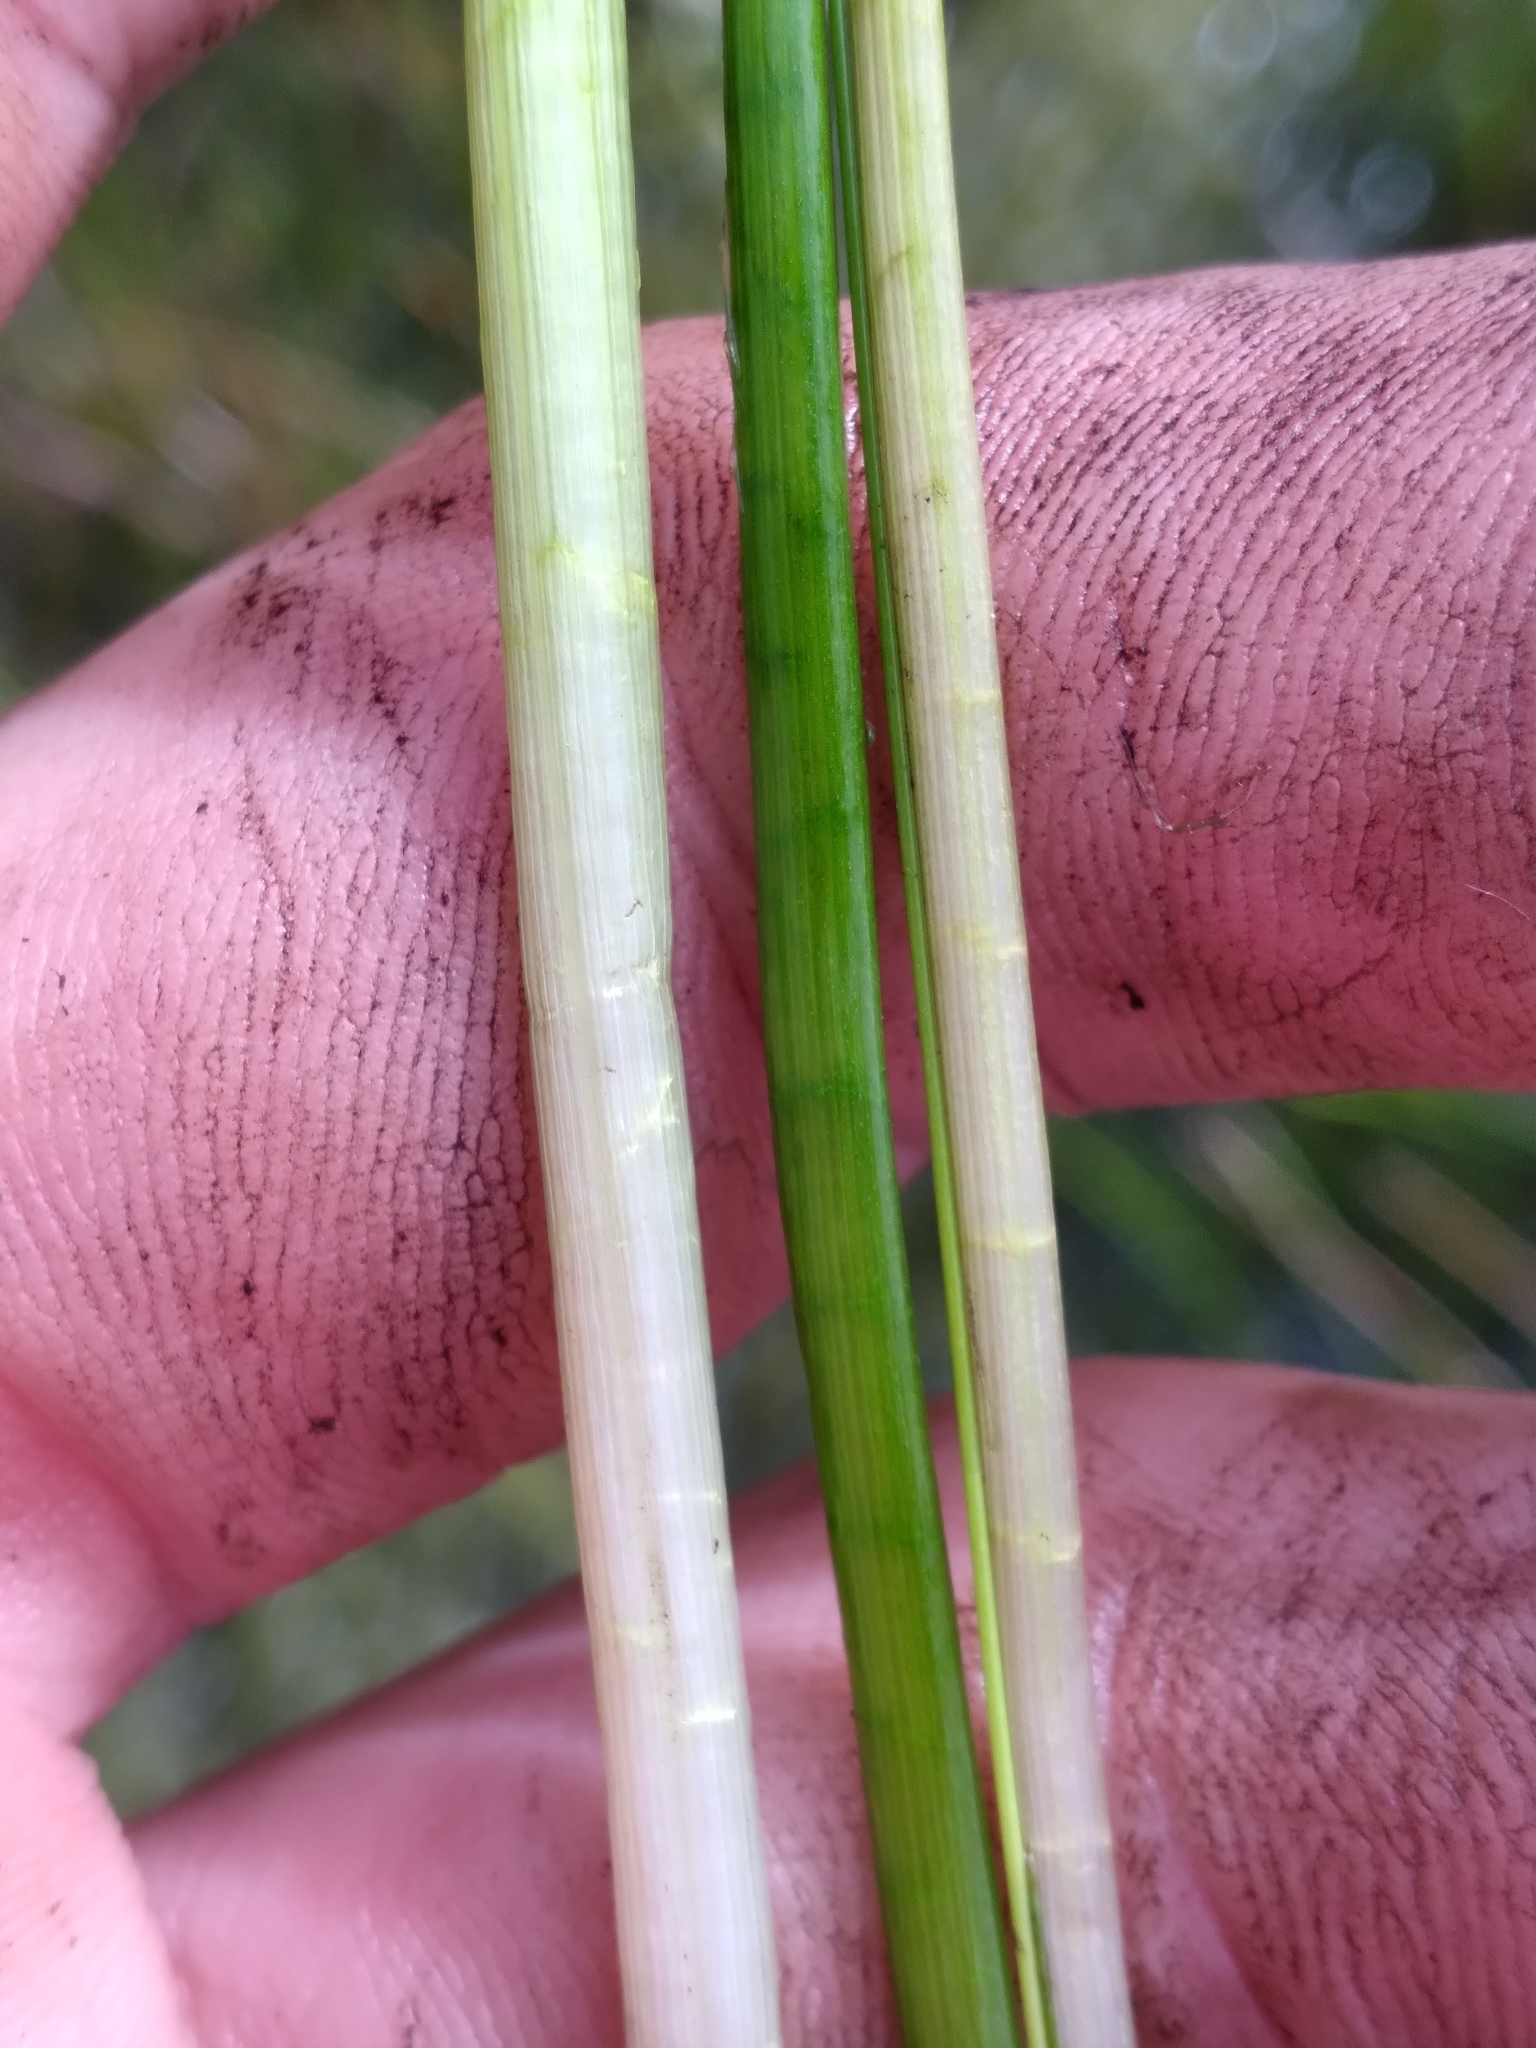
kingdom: Plantae
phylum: Tracheophyta
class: Liliopsida
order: Alismatales
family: Alismataceae
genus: Sagittaria
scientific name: Sagittaria graminea
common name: Grass-leaved arrowhead
